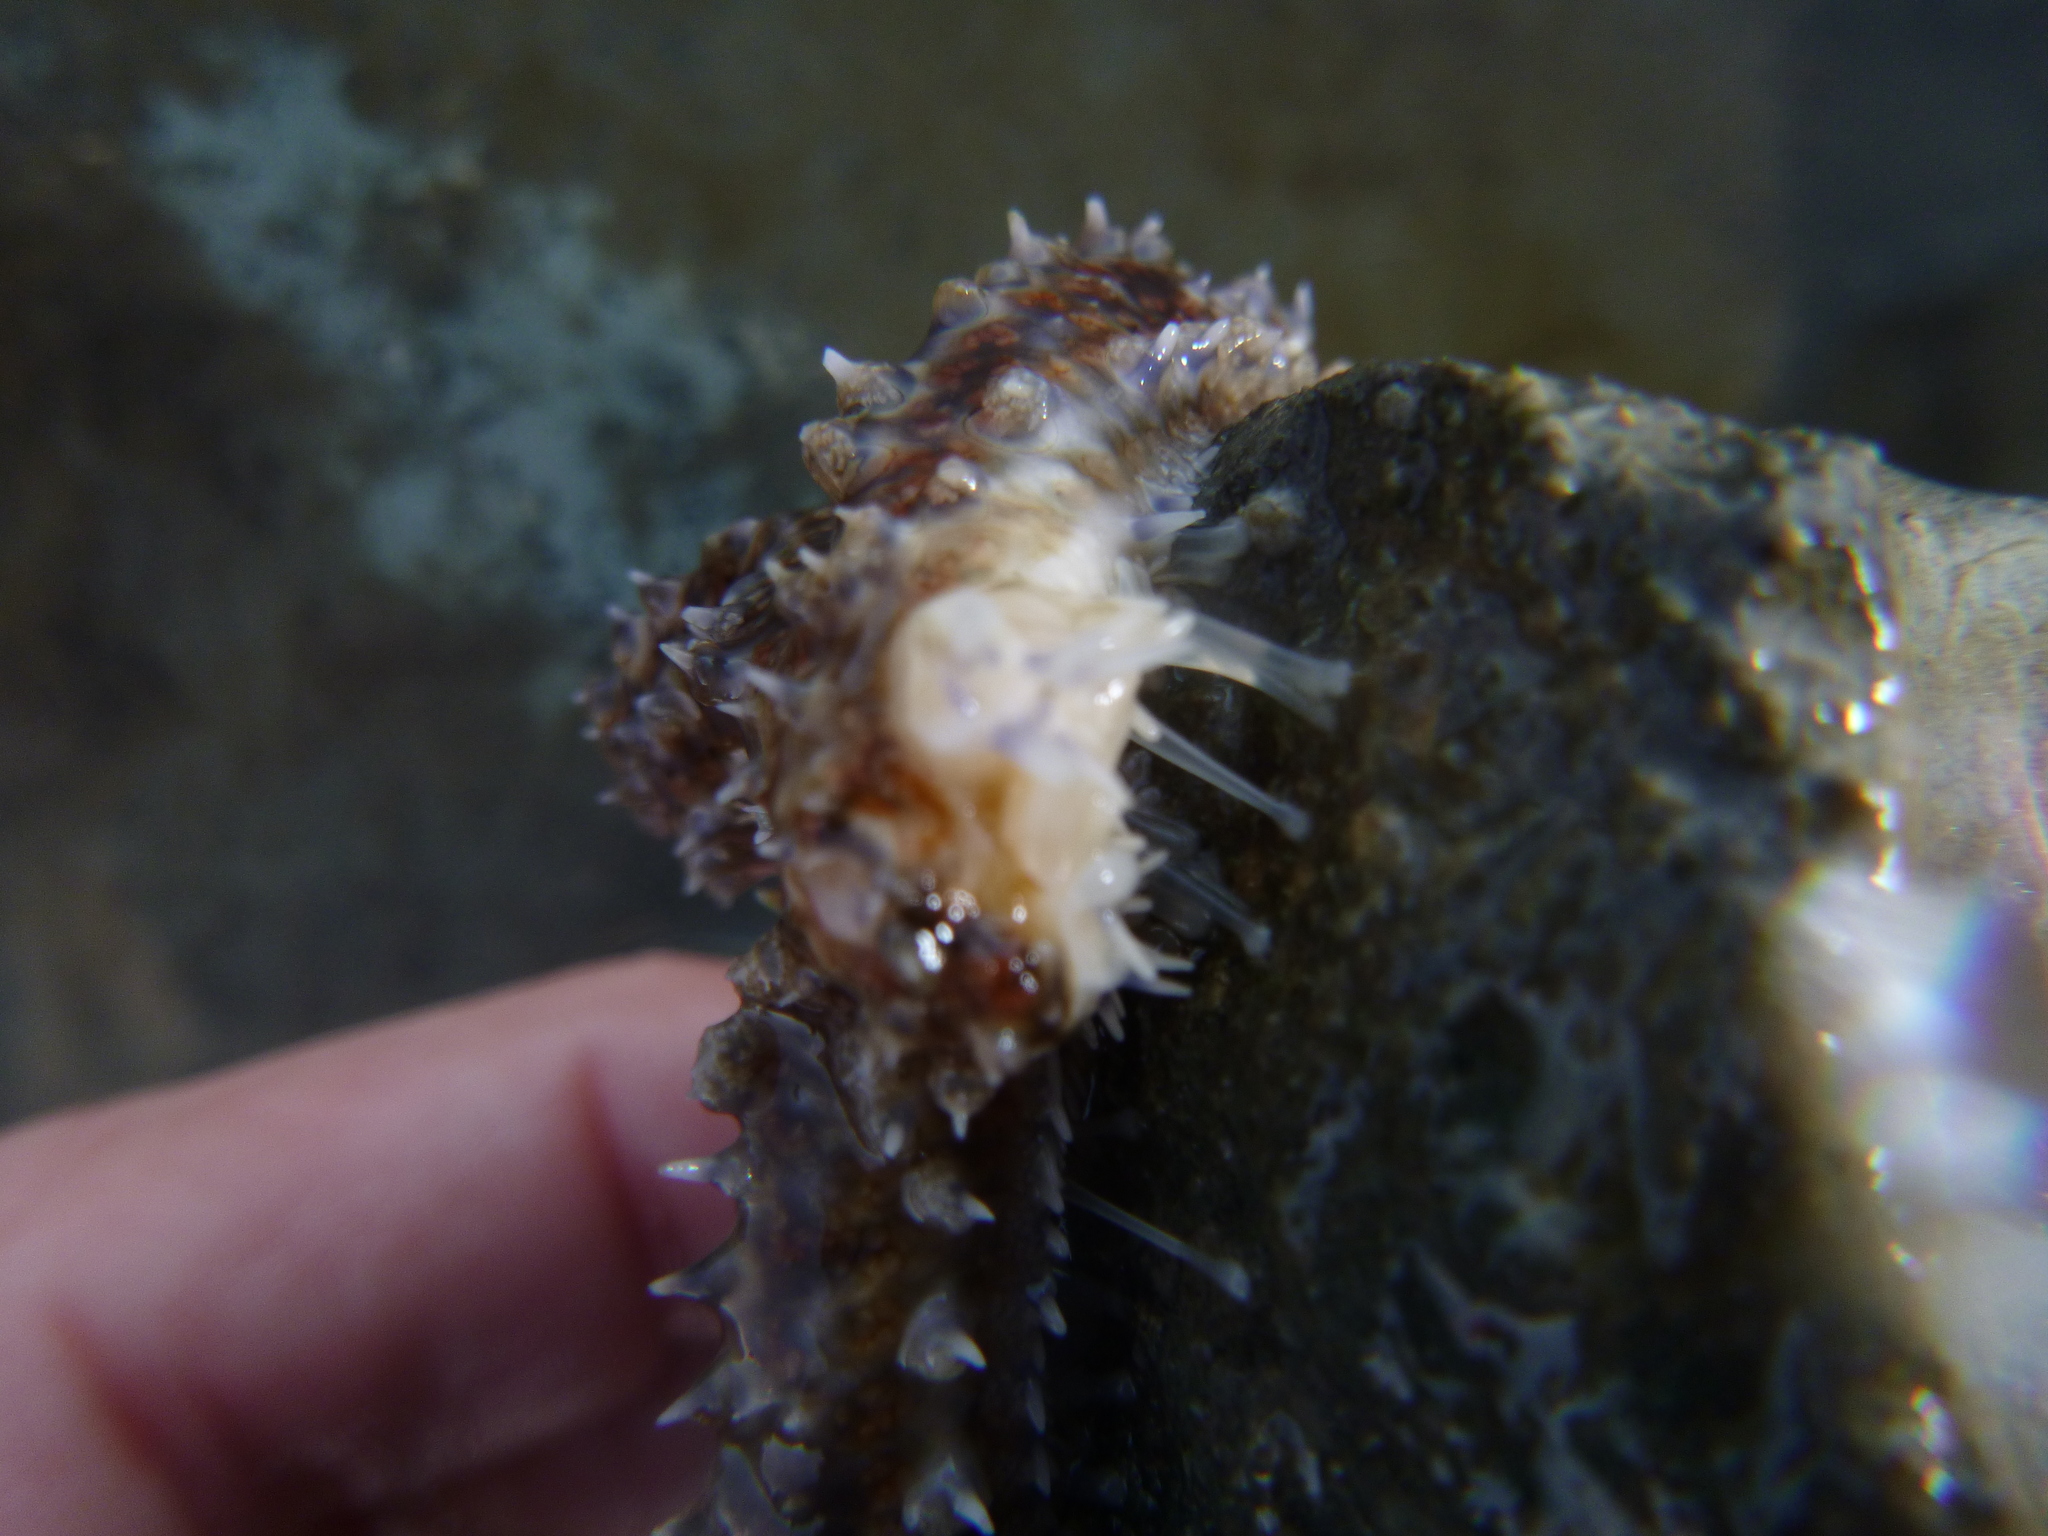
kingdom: Animalia
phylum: Echinodermata
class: Asteroidea
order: Forcipulatida
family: Asteriidae
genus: Coscinasterias
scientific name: Coscinasterias muricata
